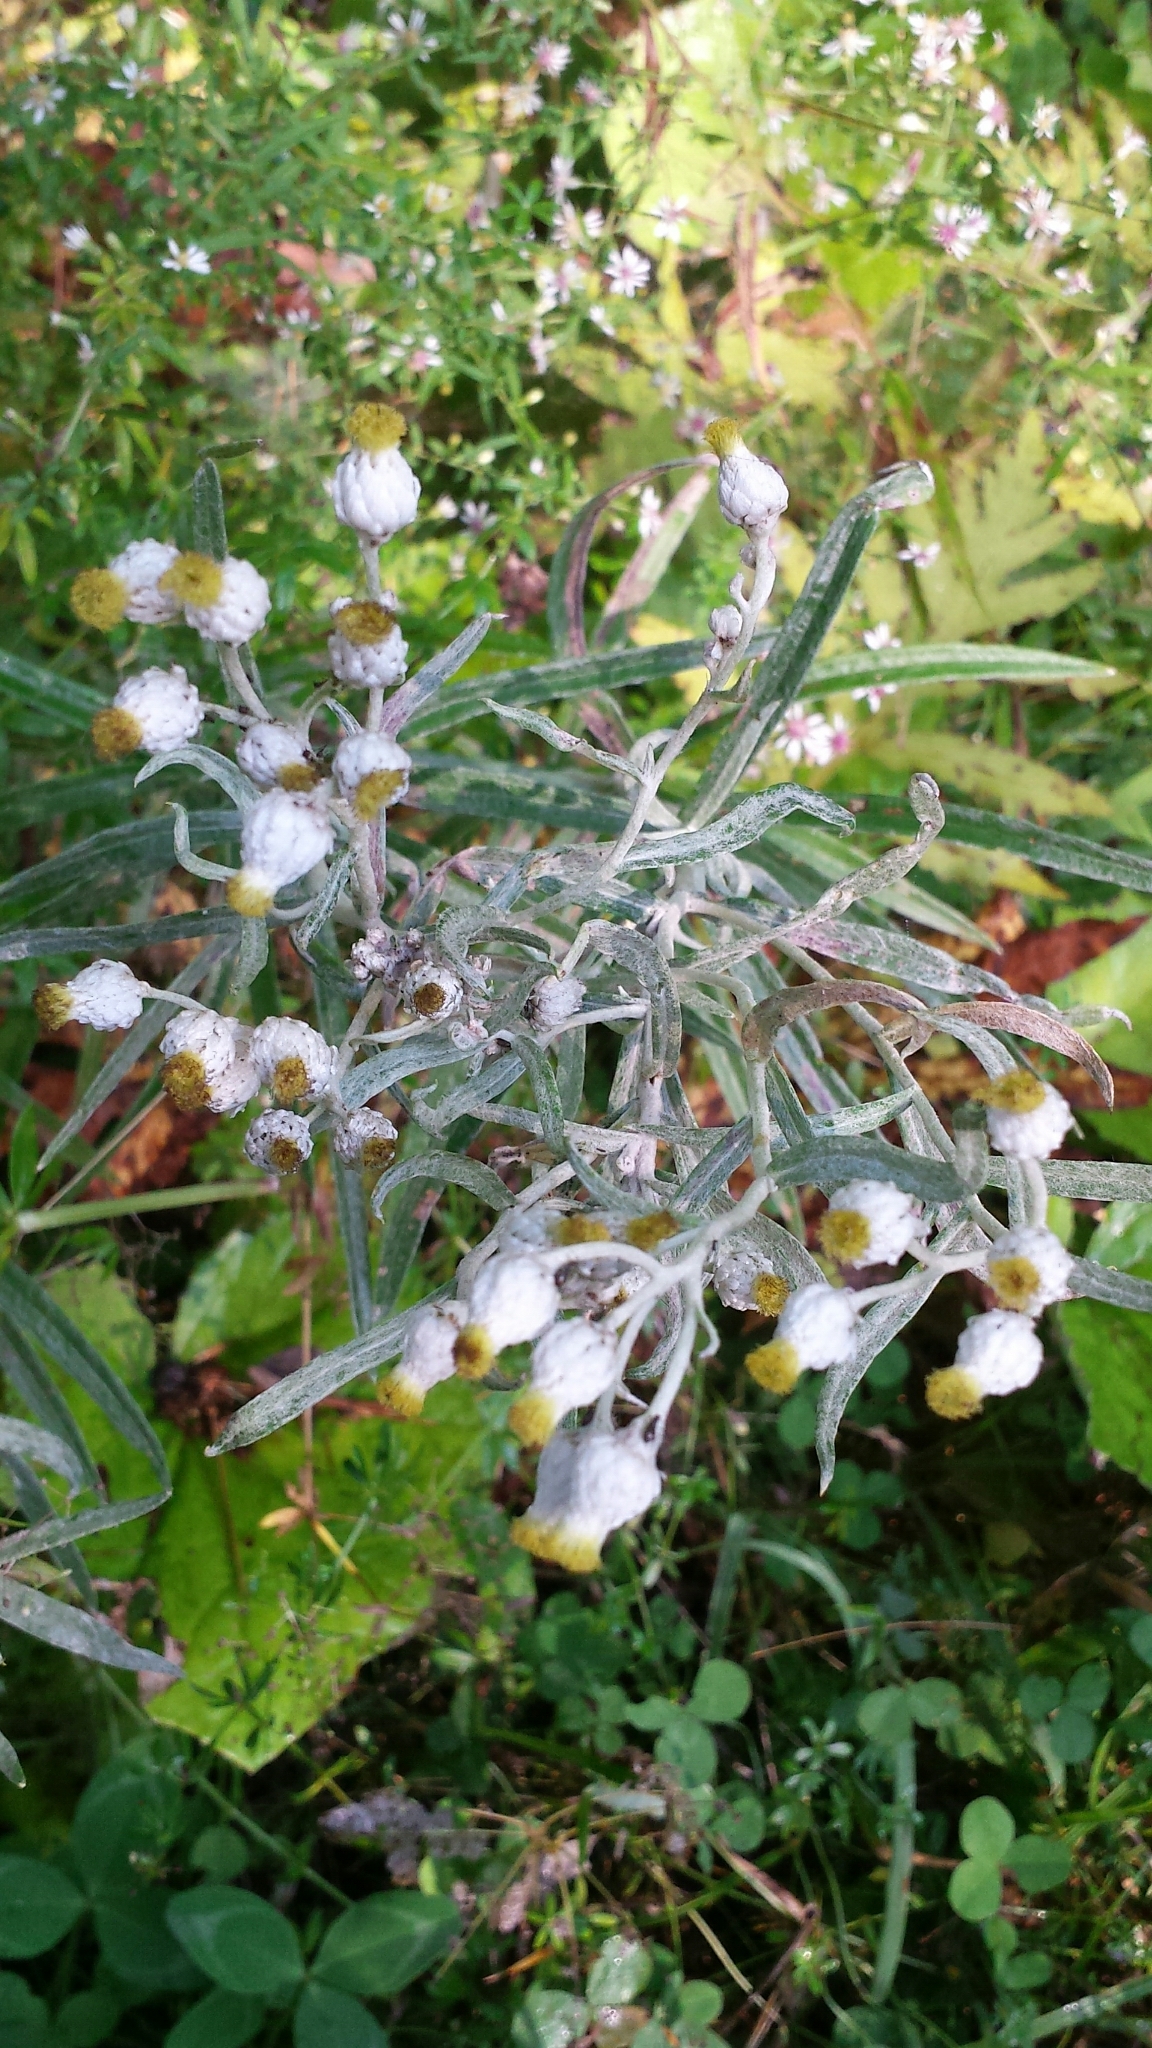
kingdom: Plantae
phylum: Tracheophyta
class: Magnoliopsida
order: Asterales
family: Asteraceae
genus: Anaphalis
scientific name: Anaphalis margaritacea
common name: Pearly everlasting
